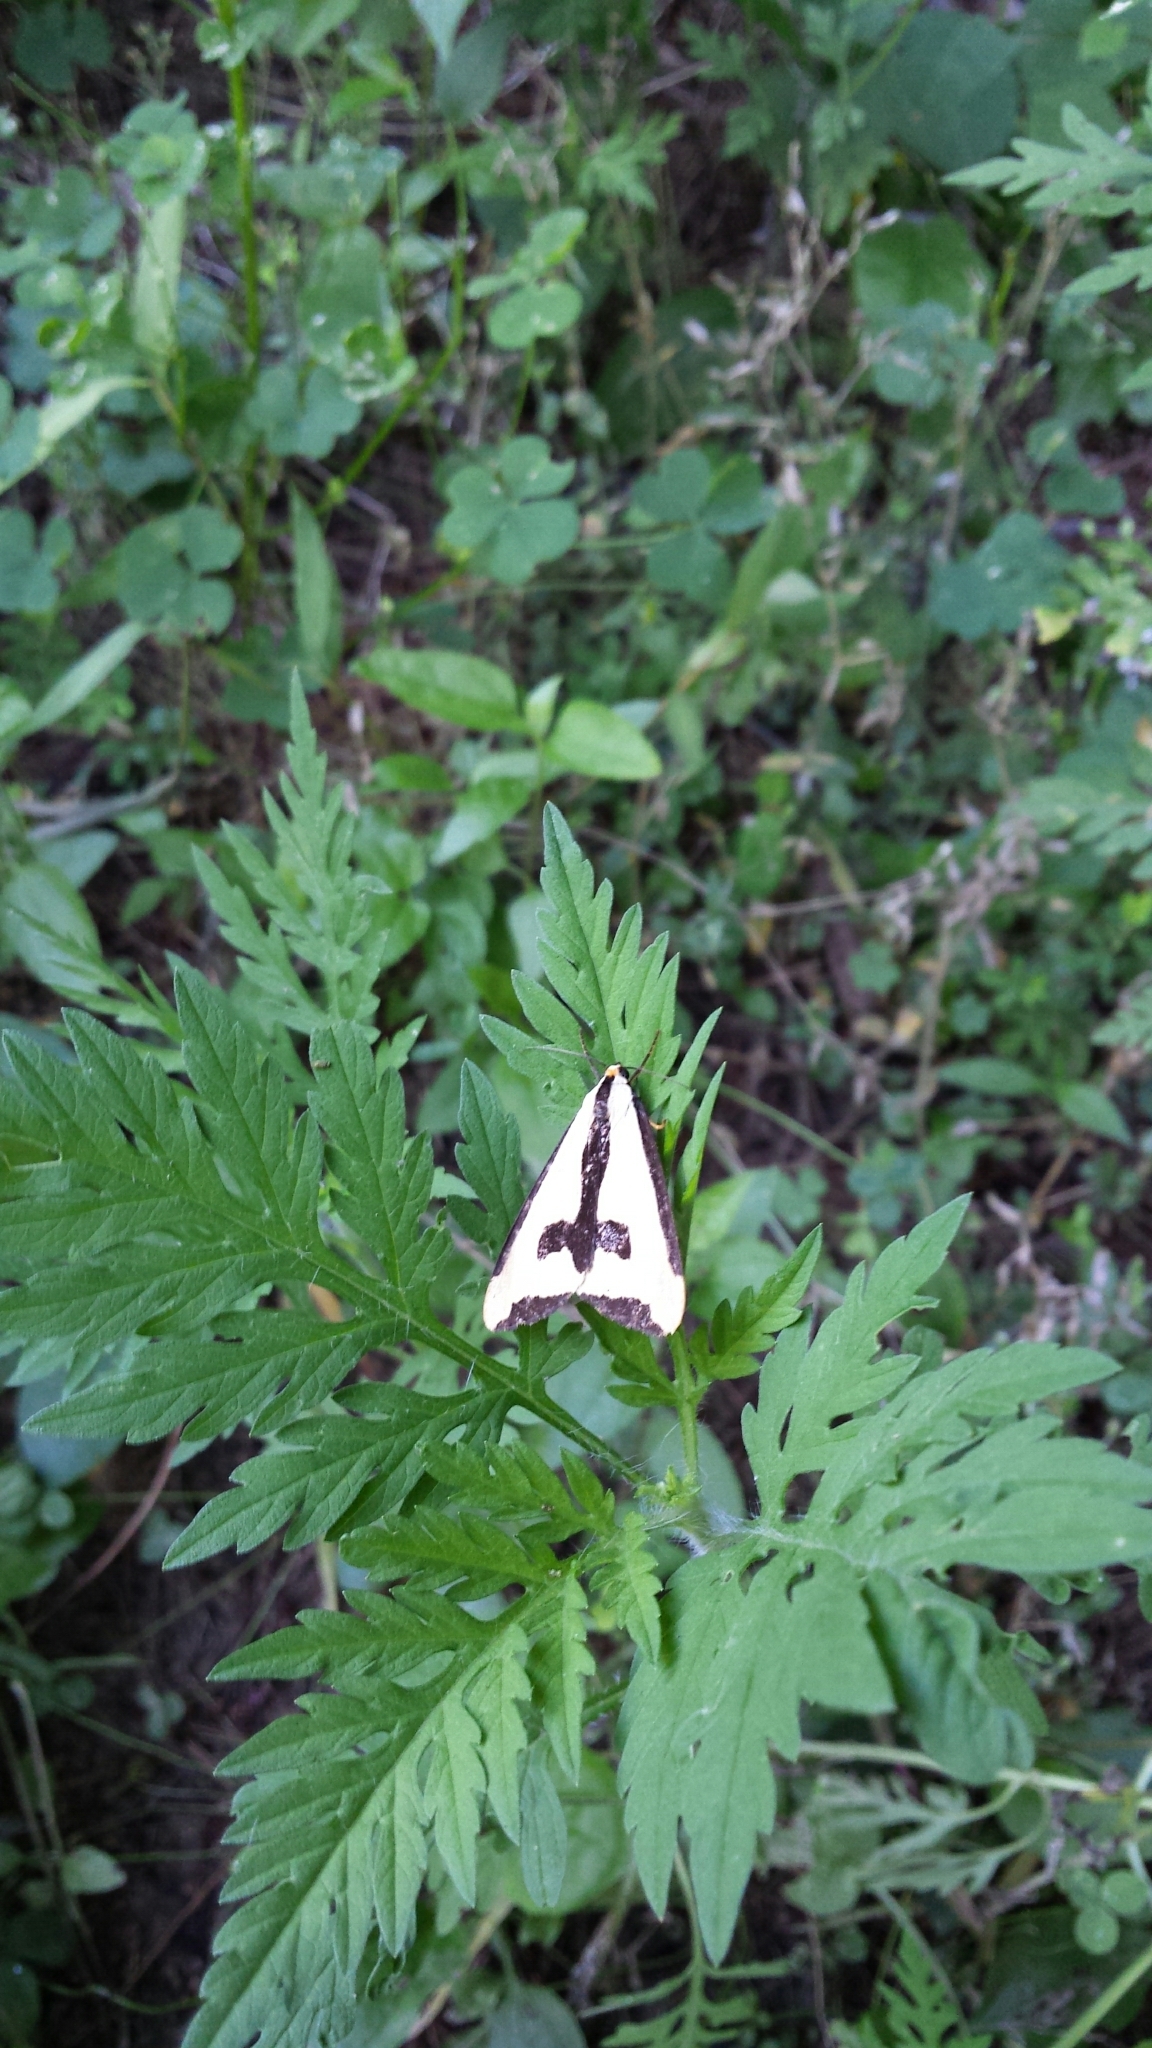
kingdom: Animalia
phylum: Arthropoda
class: Insecta
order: Lepidoptera
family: Erebidae
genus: Haploa
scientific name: Haploa clymene
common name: Clymene moth
